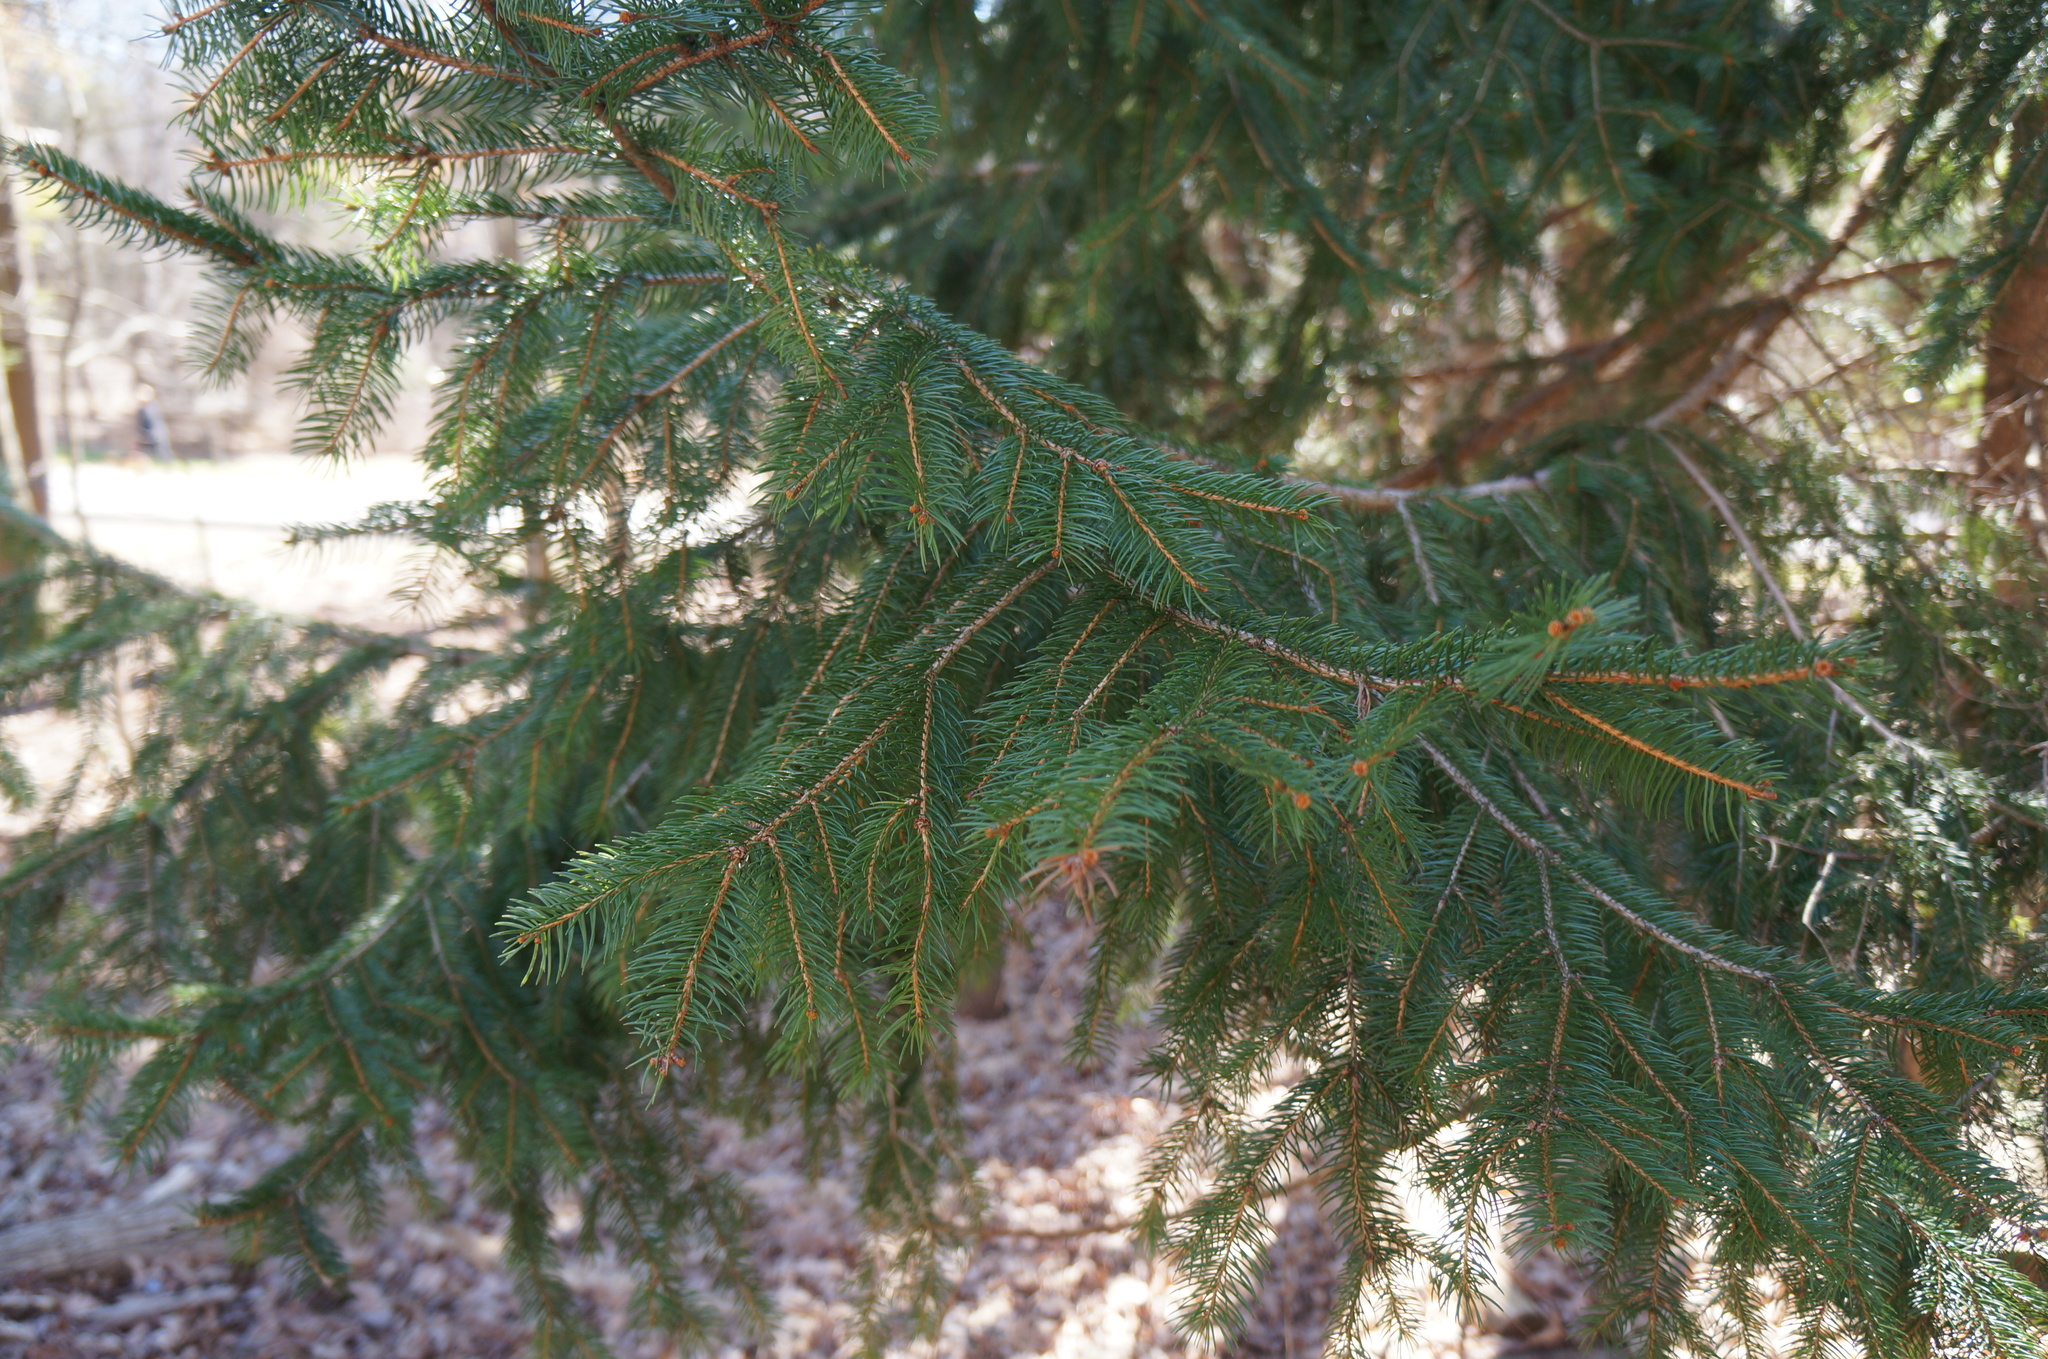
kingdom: Plantae
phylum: Tracheophyta
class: Pinopsida
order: Pinales
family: Pinaceae
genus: Picea
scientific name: Picea abies
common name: Norway spruce
